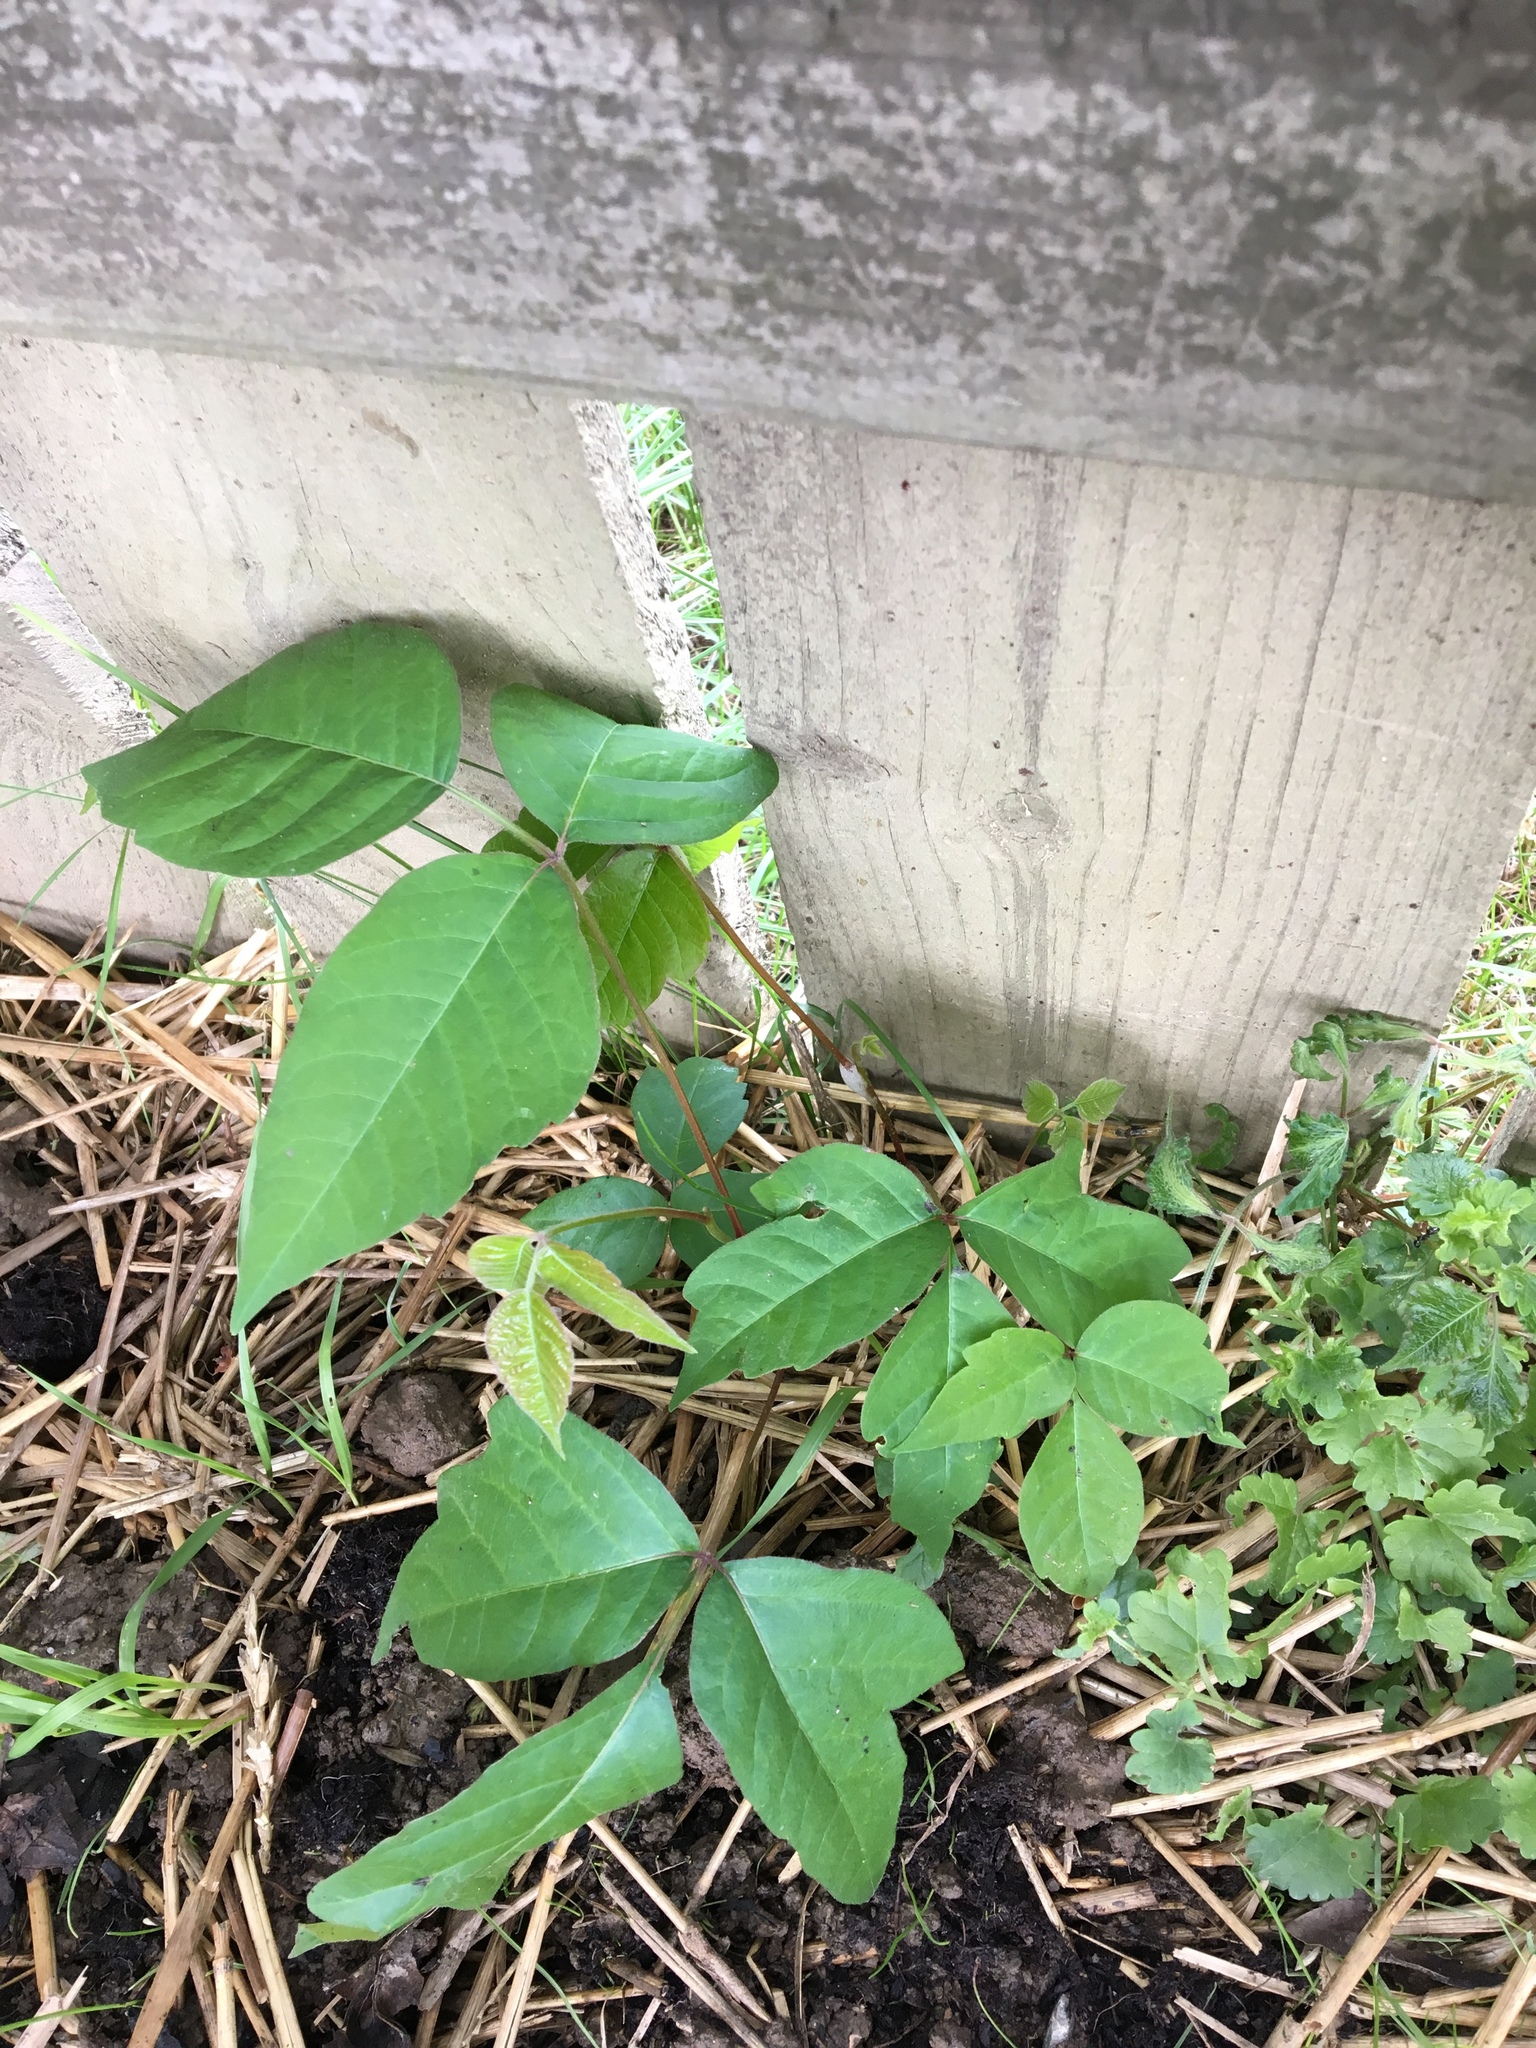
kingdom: Plantae
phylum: Tracheophyta
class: Magnoliopsida
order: Sapindales
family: Anacardiaceae
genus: Toxicodendron
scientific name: Toxicodendron radicans
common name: Poison ivy
